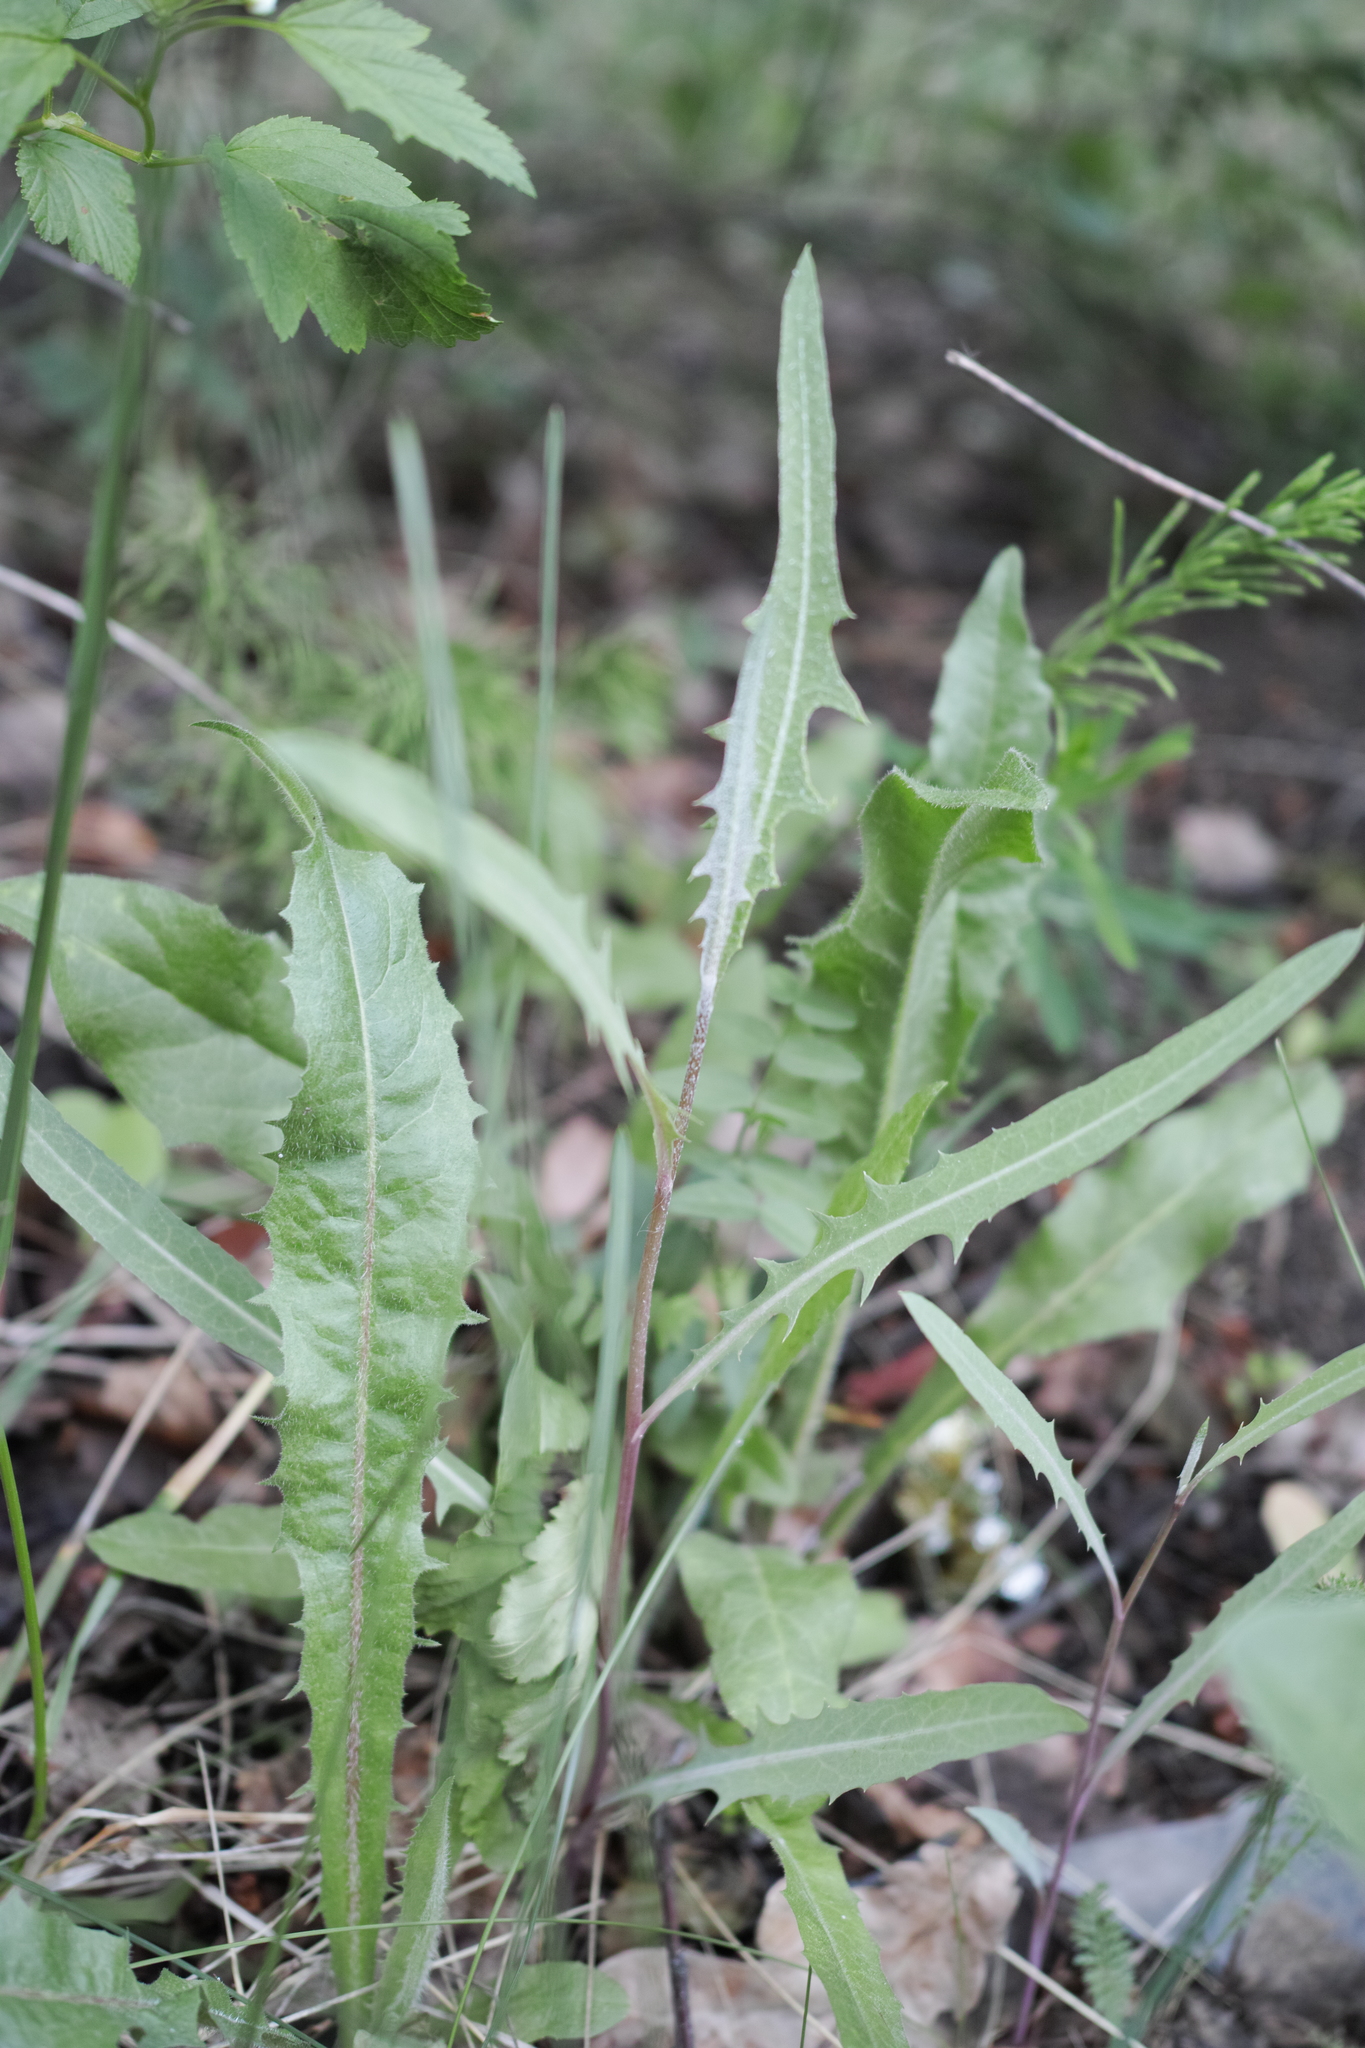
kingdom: Plantae
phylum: Tracheophyta
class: Magnoliopsida
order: Asterales
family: Asteraceae
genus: Lactuca
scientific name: Lactuca tatarica
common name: Blue lettuce
